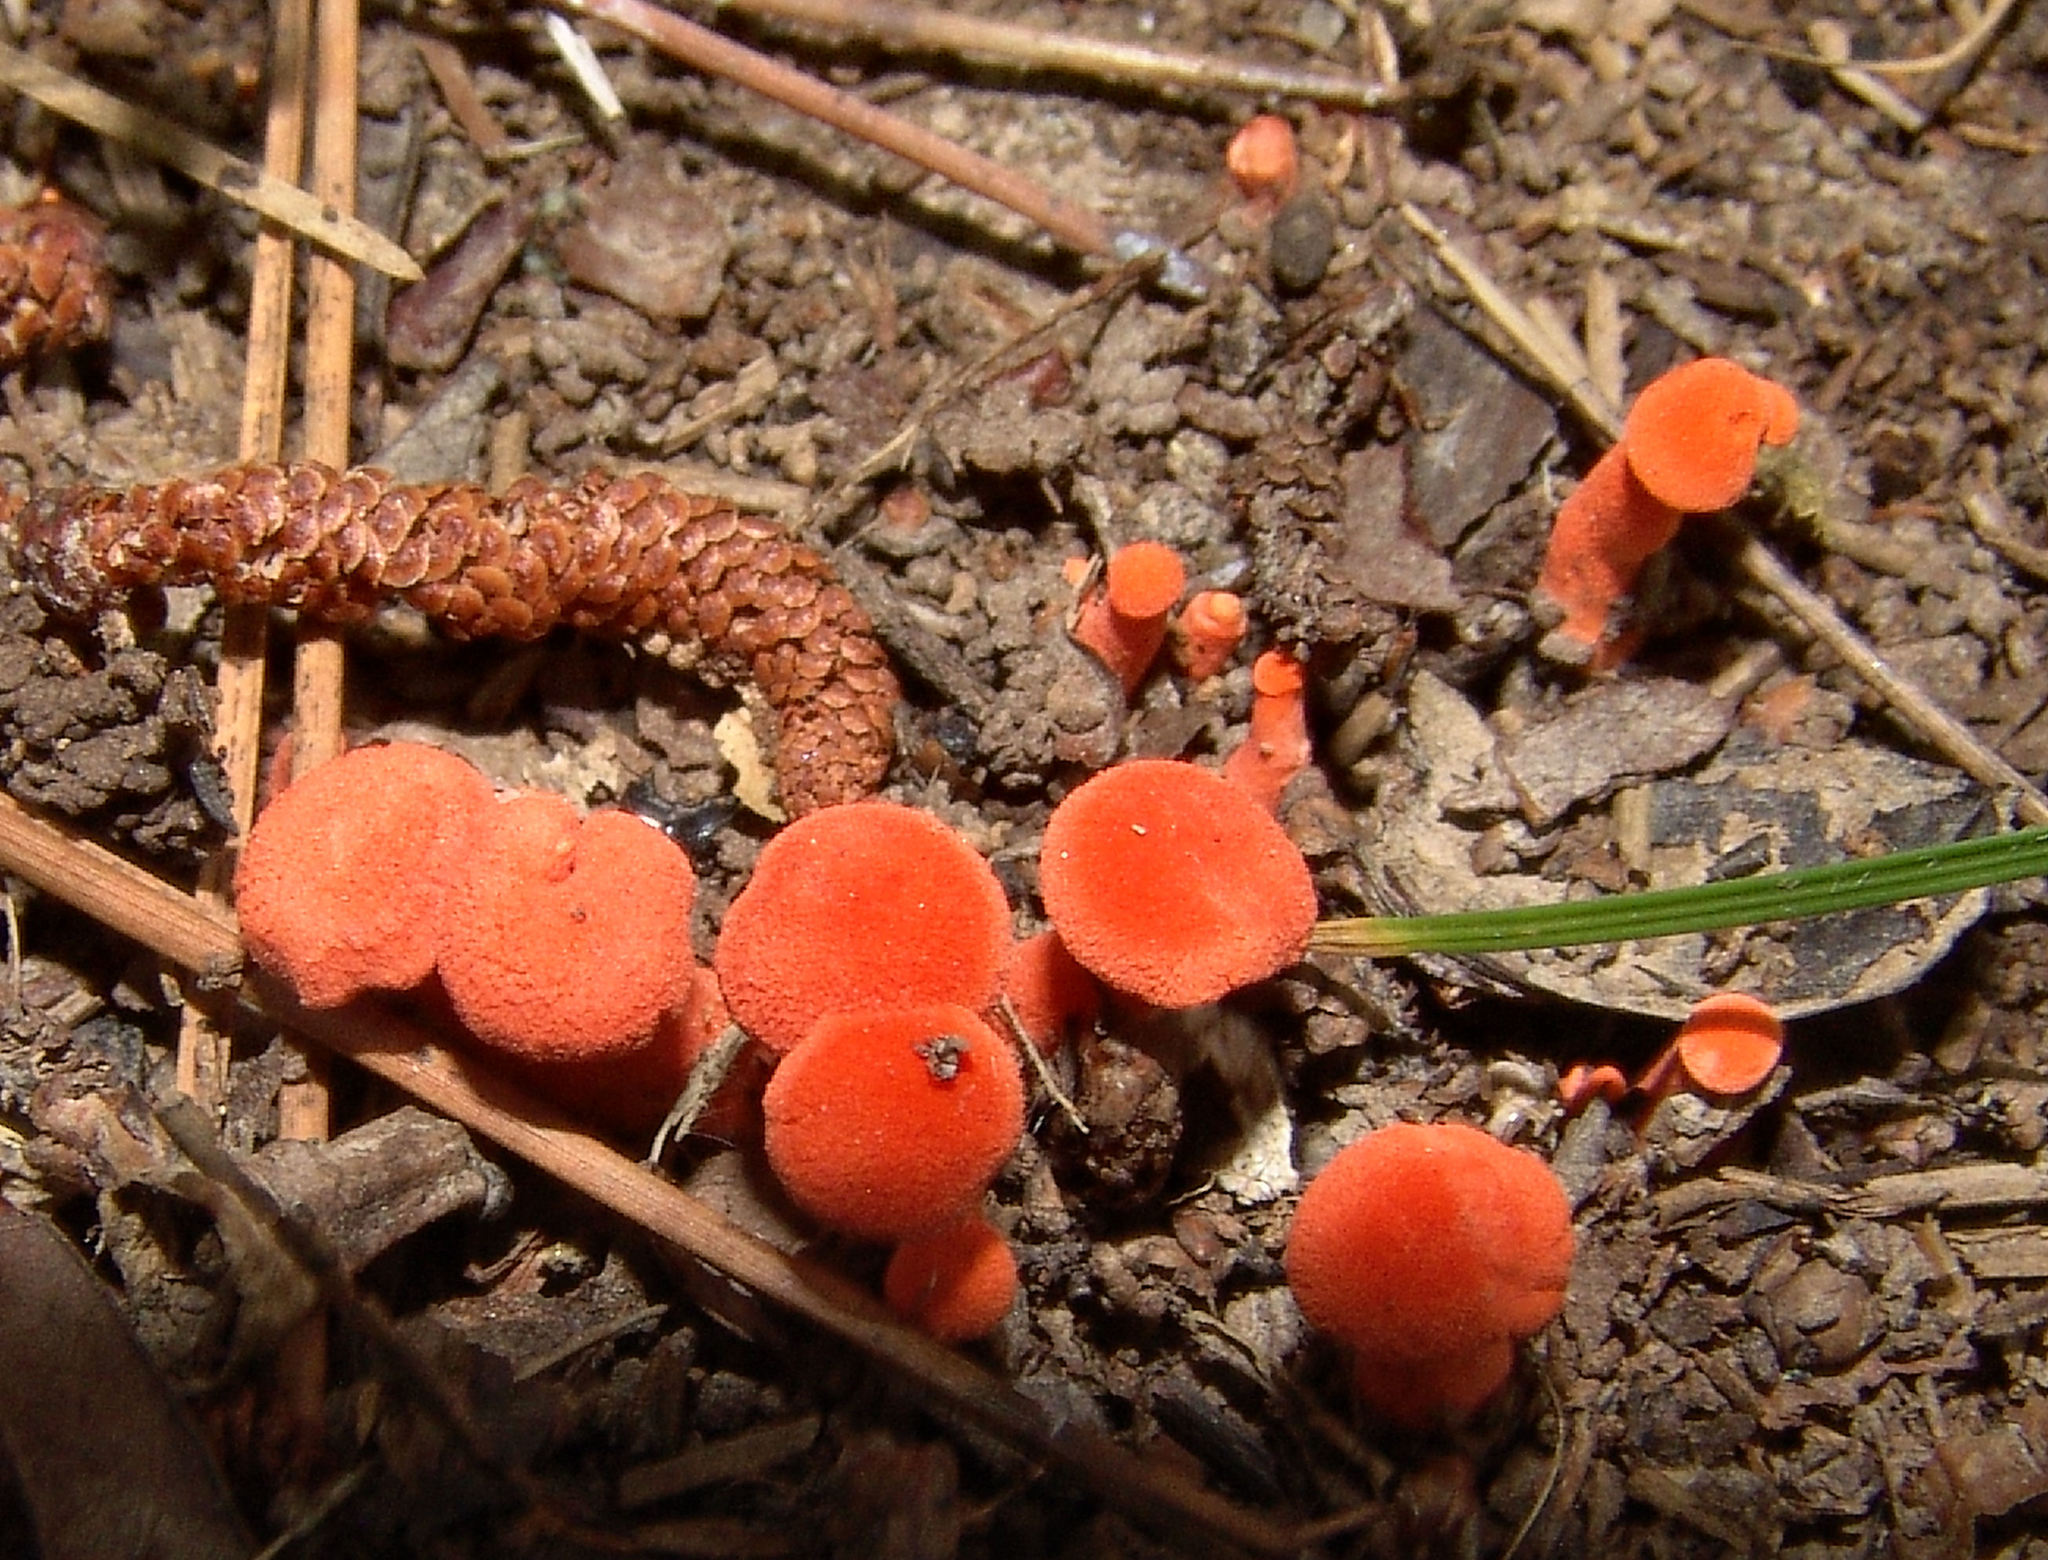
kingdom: Fungi
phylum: Basidiomycota
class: Agaricomycetes
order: Cantharellales
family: Hydnaceae
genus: Cantharellus
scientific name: Cantharellus cinnabarinus
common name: Cinnabar chanterelle
